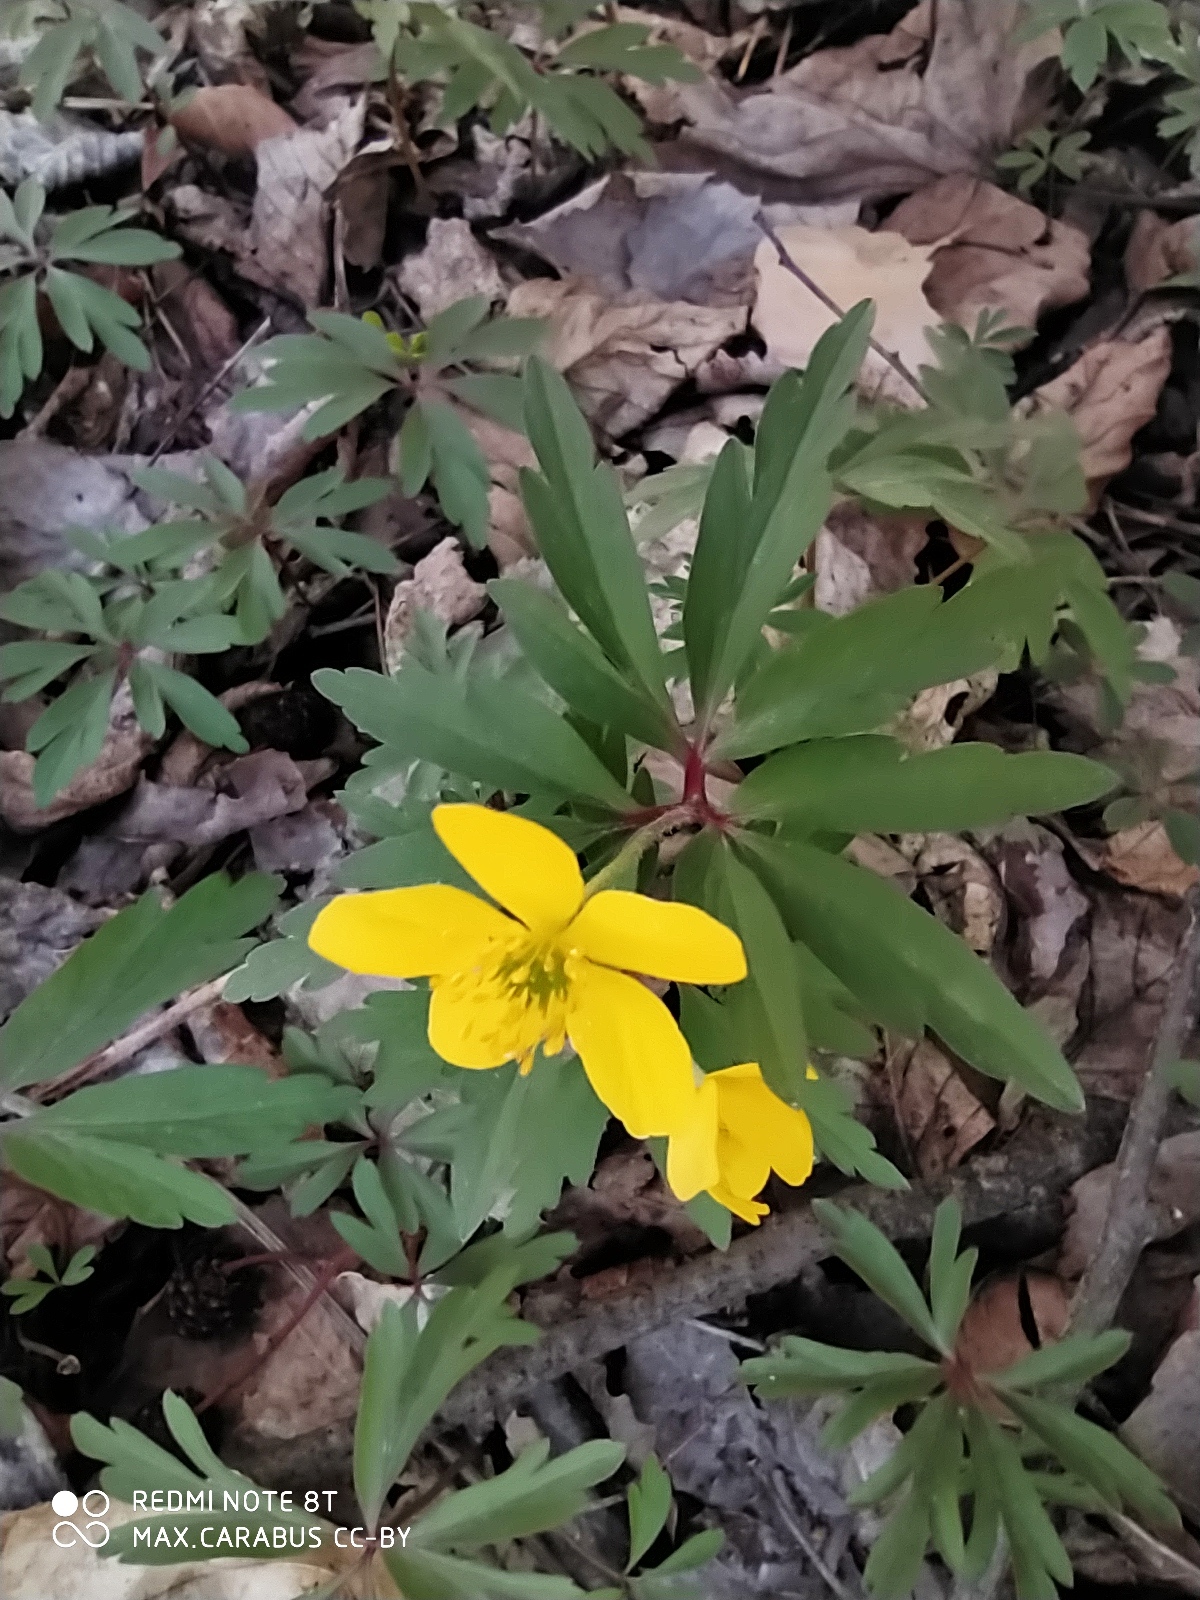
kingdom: Plantae
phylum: Tracheophyta
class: Magnoliopsida
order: Ranunculales
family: Ranunculaceae
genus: Anemone
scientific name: Anemone ranunculoides
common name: Yellow anemone
